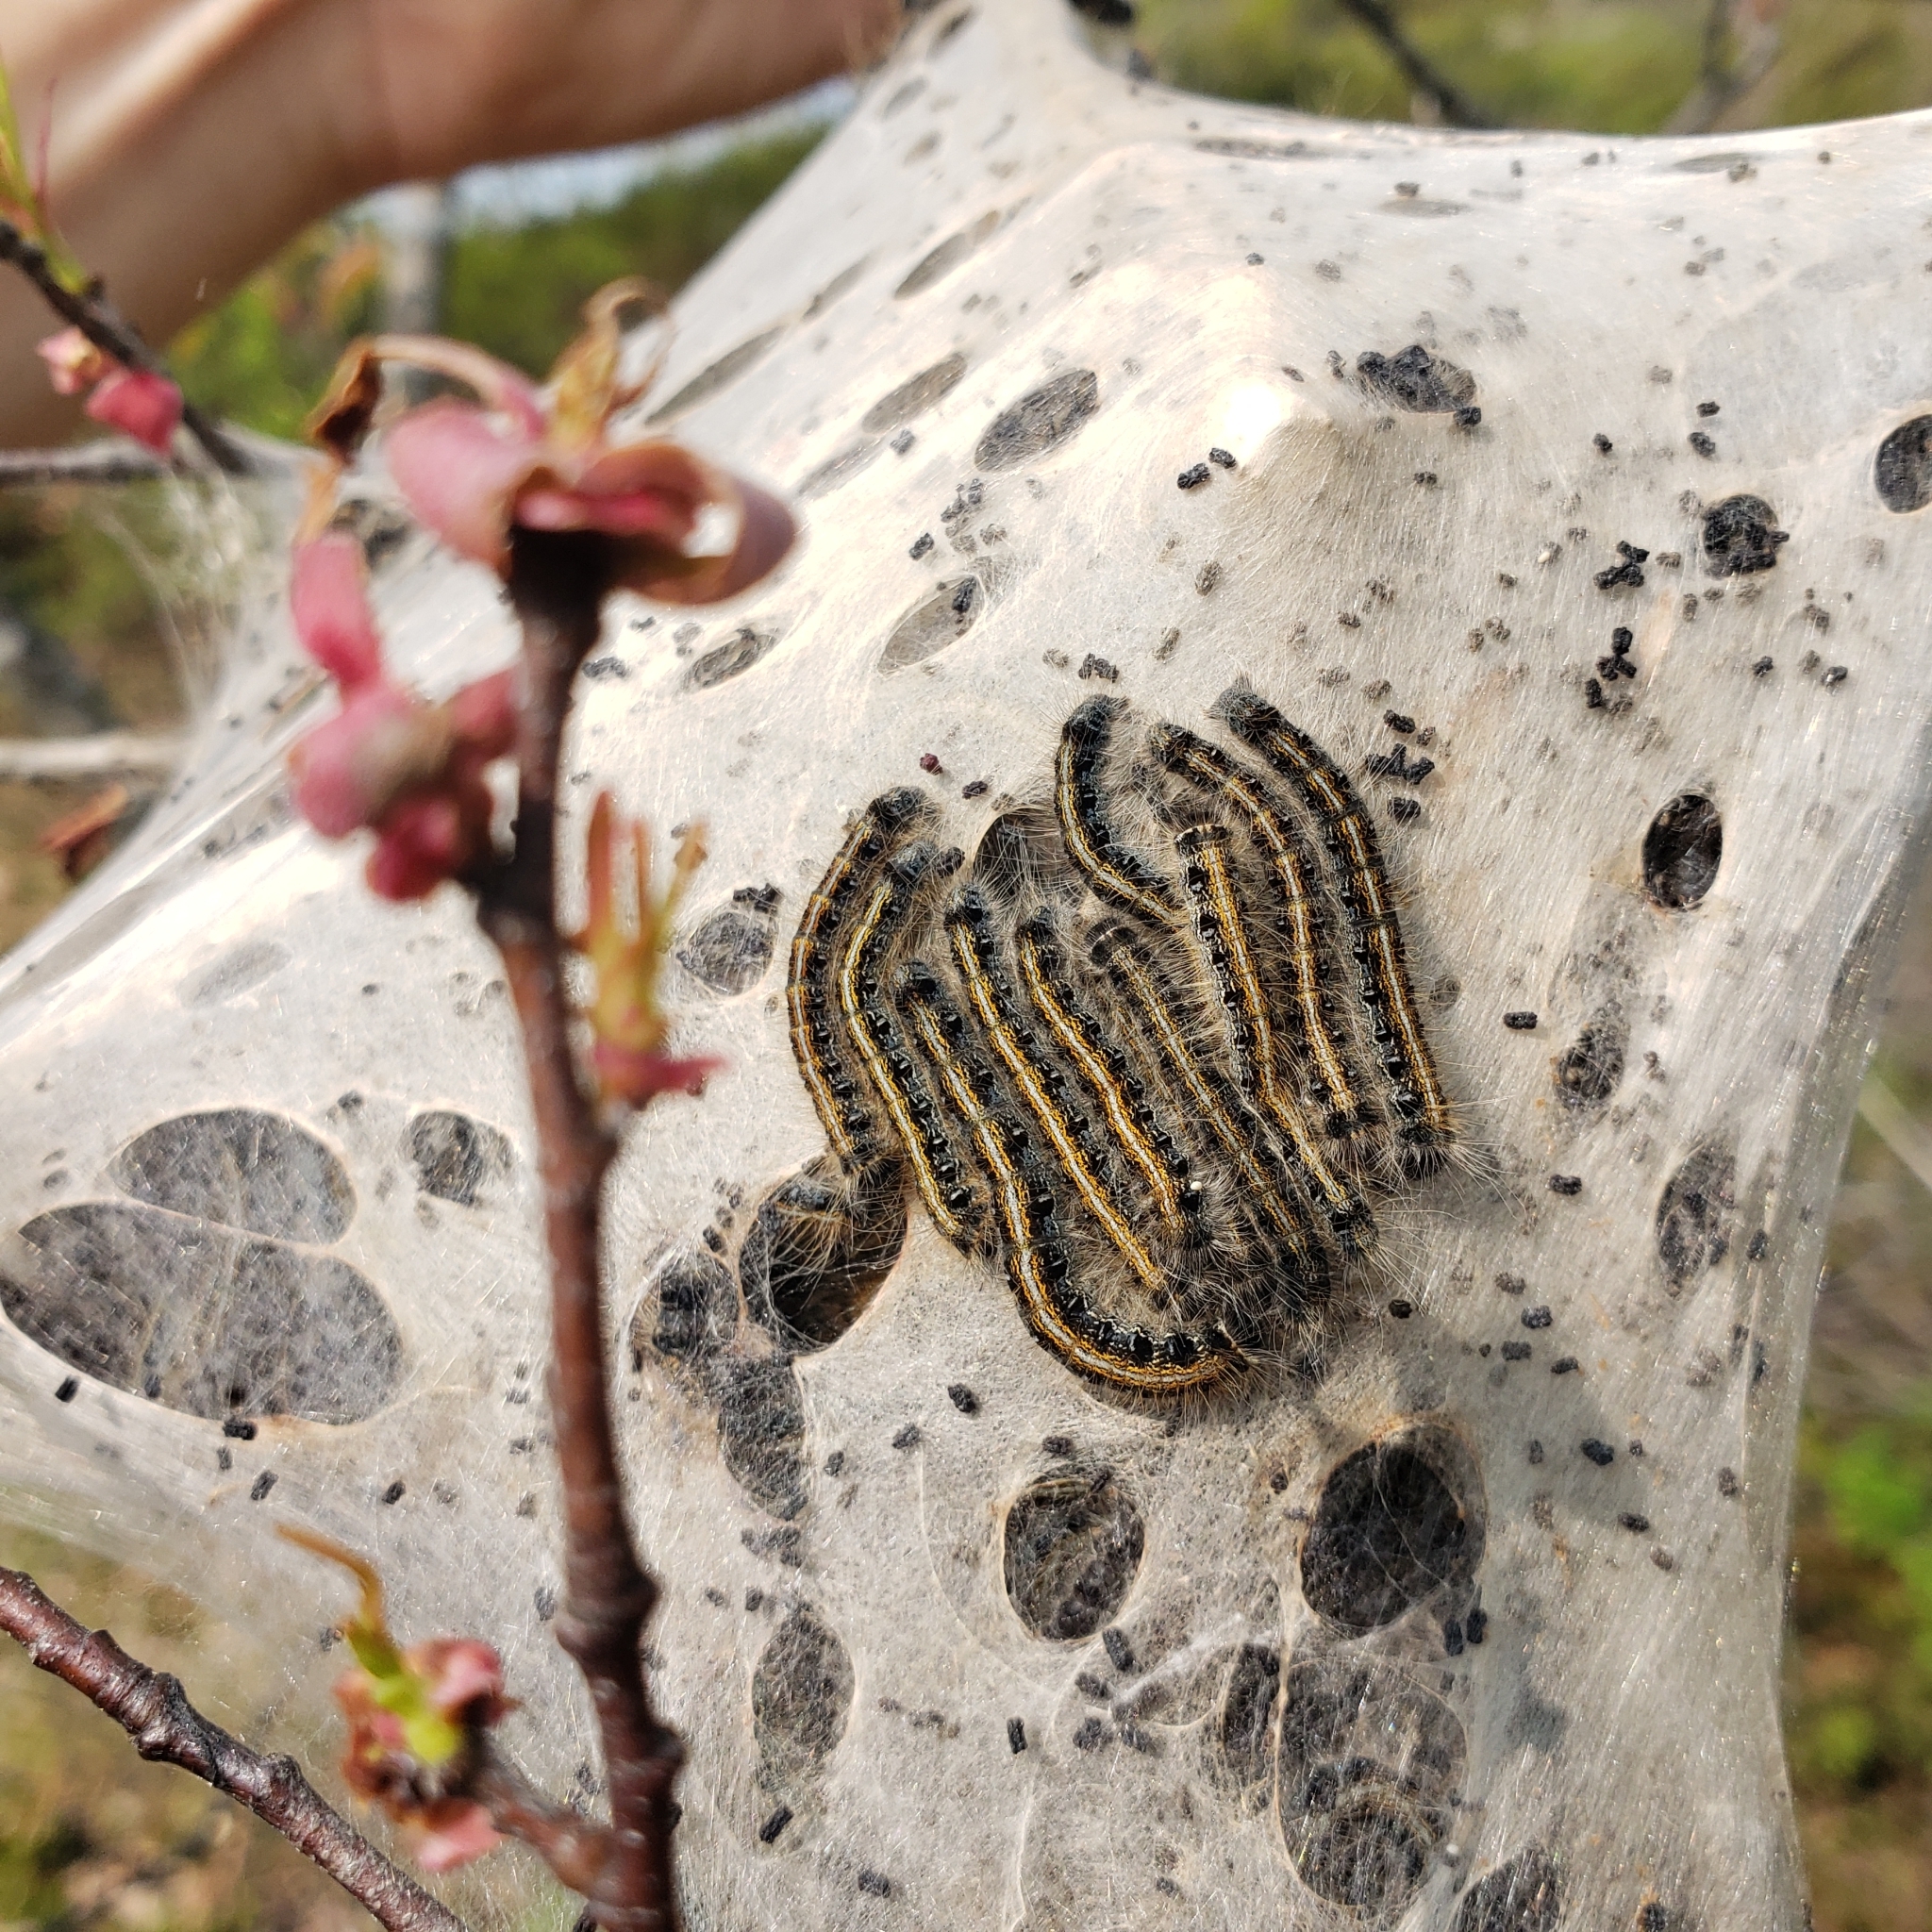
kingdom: Animalia
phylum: Arthropoda
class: Insecta
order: Lepidoptera
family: Lasiocampidae
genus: Malacosoma
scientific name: Malacosoma americana
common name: Eastern tent caterpillar moth
